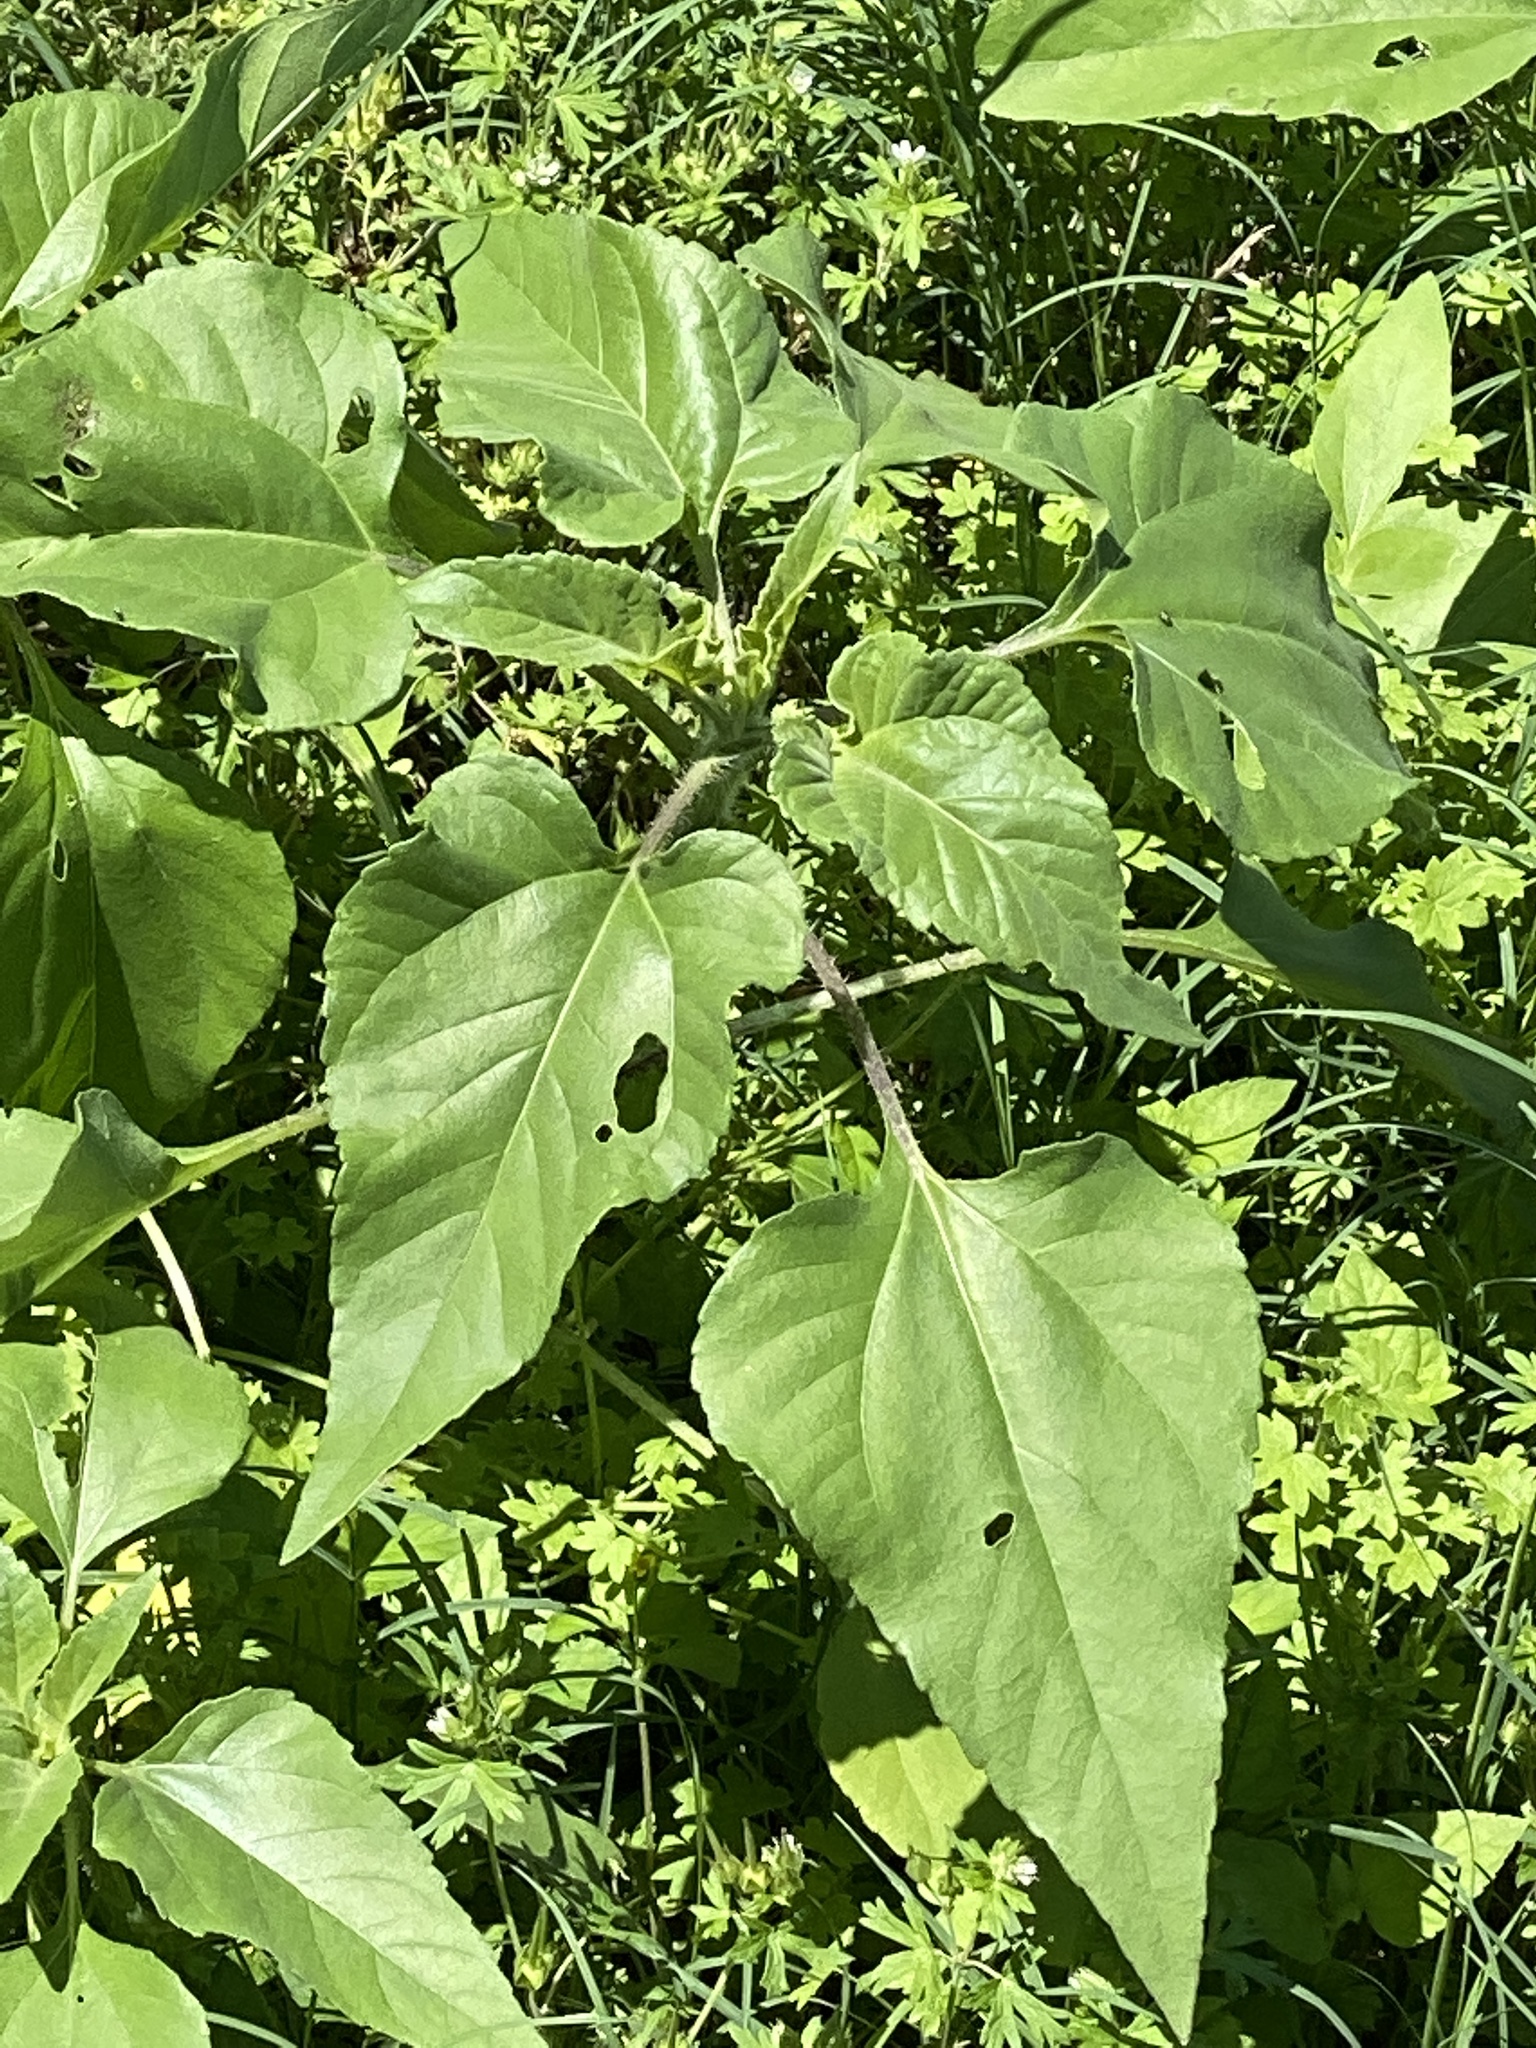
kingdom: Plantae
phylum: Tracheophyta
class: Magnoliopsida
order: Asterales
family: Asteraceae
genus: Helianthus
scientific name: Helianthus annuus
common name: Sunflower
